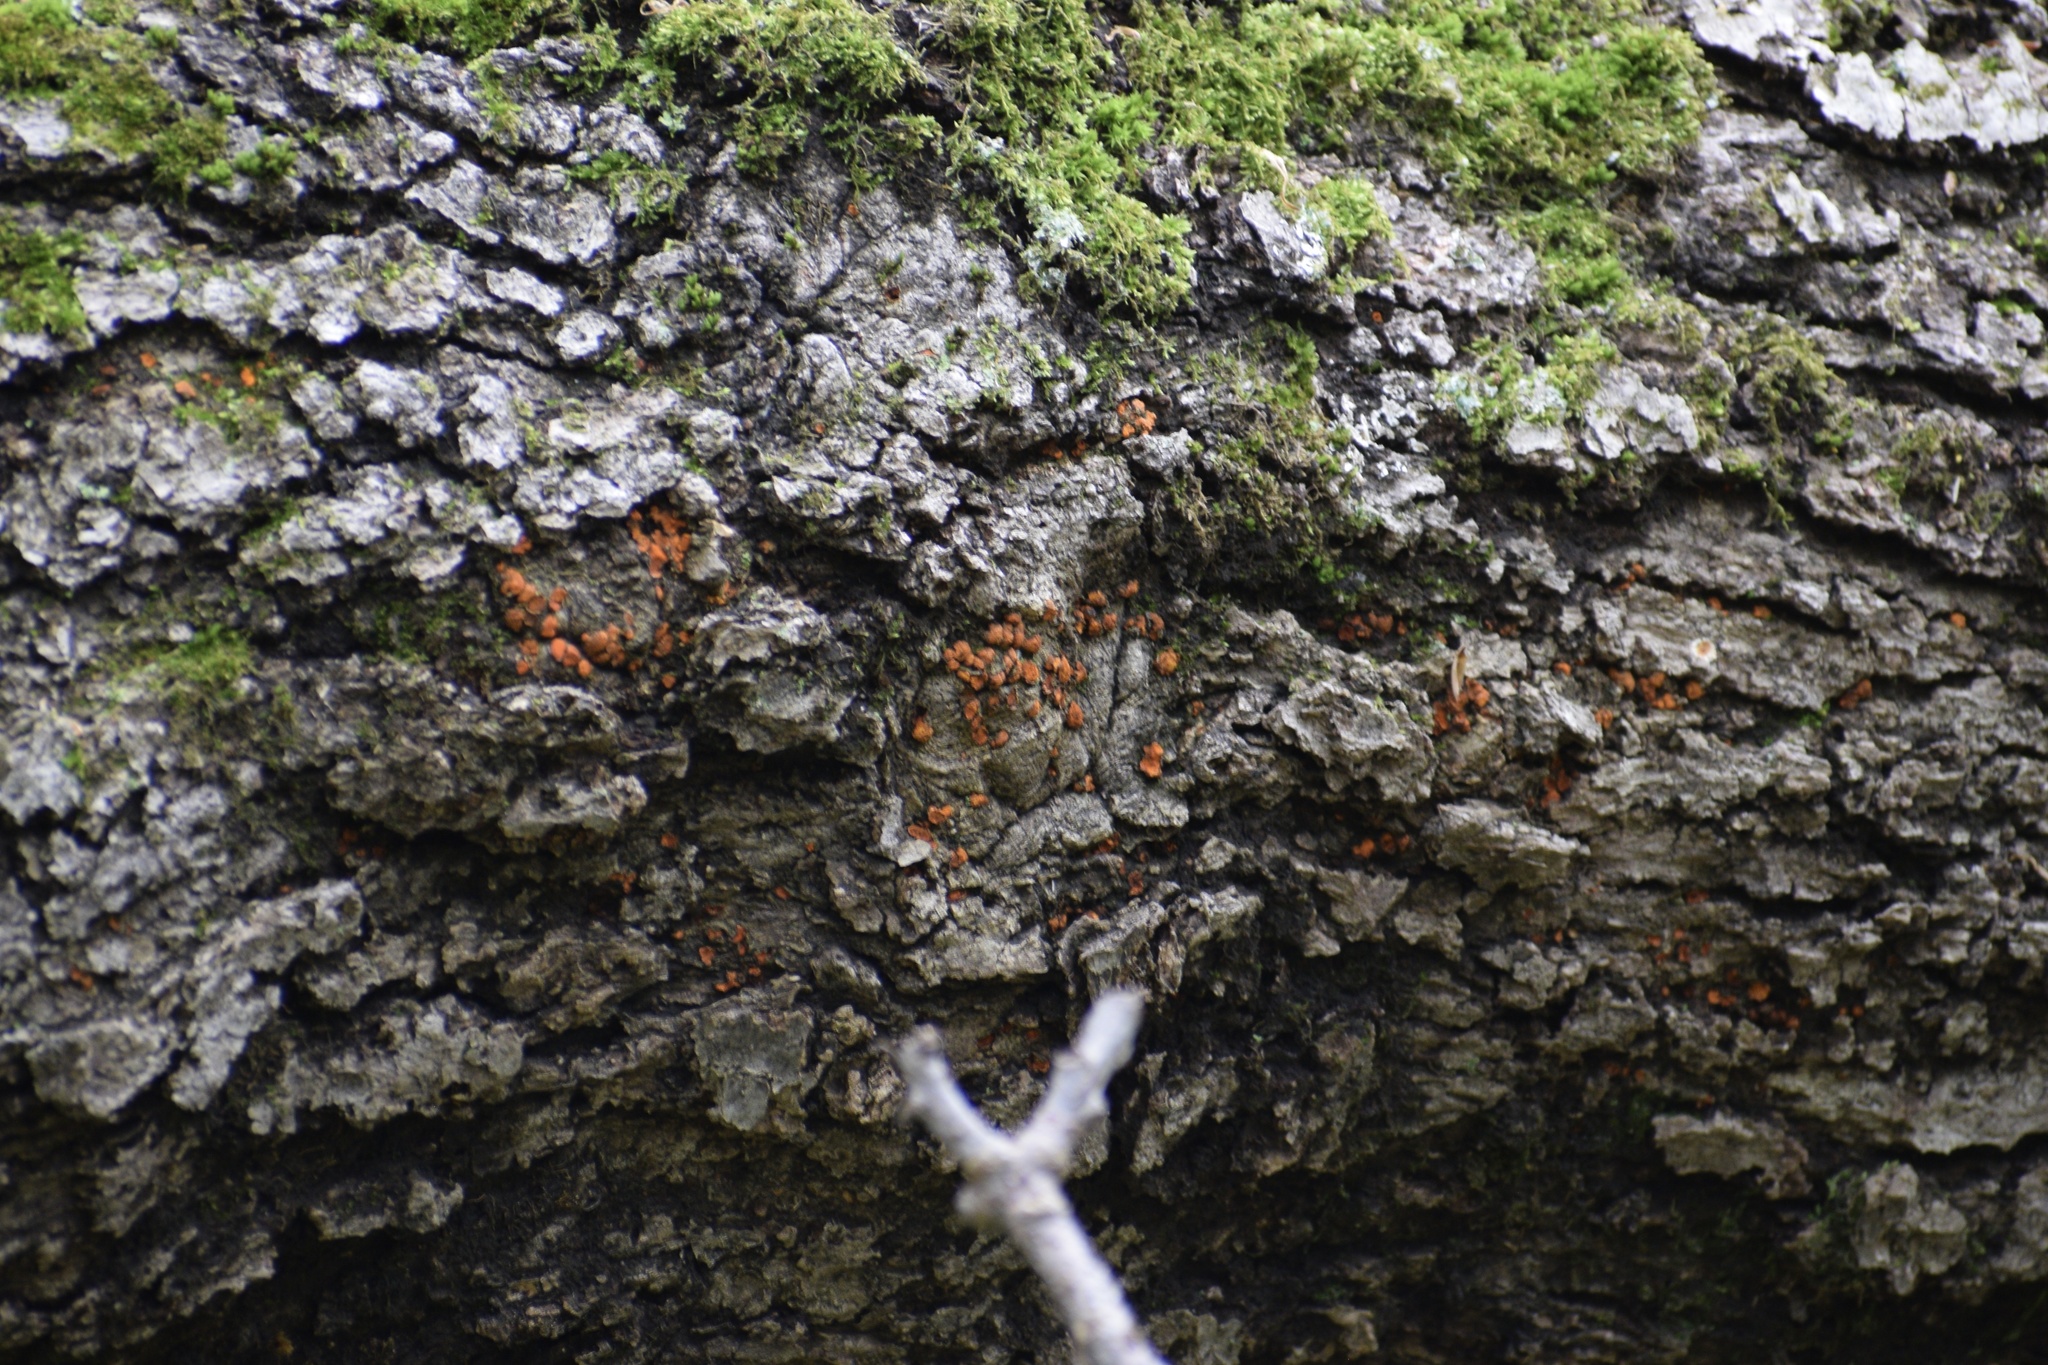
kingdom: Fungi
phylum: Ascomycota
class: Sordariomycetes
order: Diaporthales
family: Cryphonectriaceae
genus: Amphilogia
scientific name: Amphilogia gyrosa
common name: Orange hobnail canker
